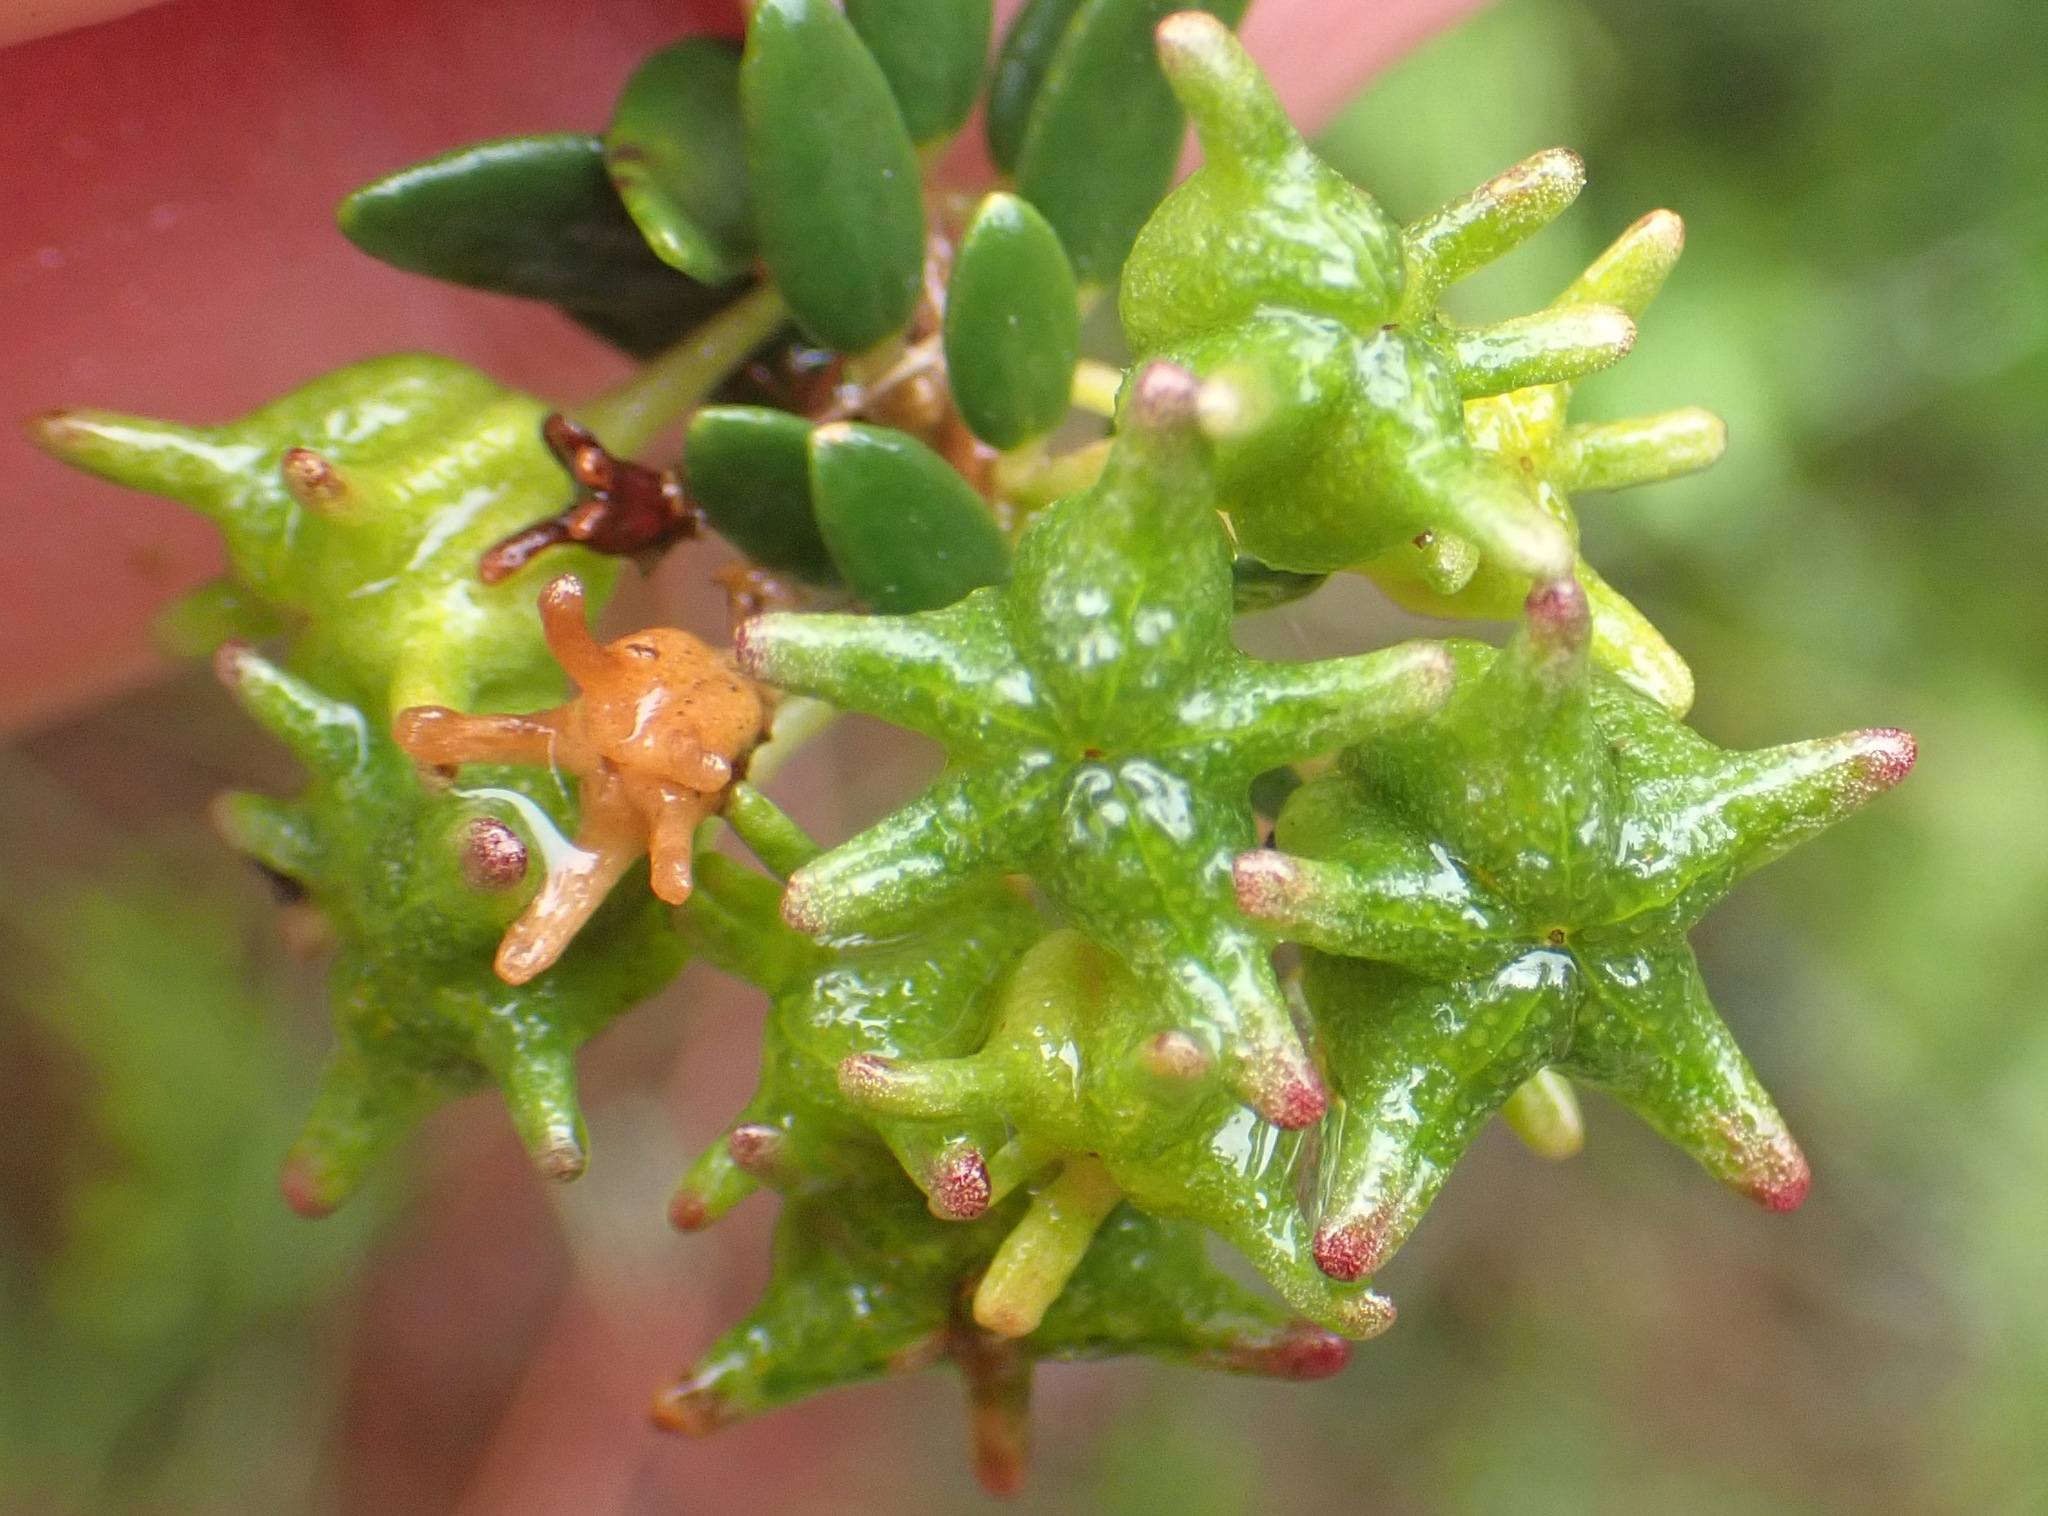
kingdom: Plantae
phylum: Tracheophyta
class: Magnoliopsida
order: Sapindales
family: Rutaceae
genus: Agathosma
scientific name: Agathosma ovata
